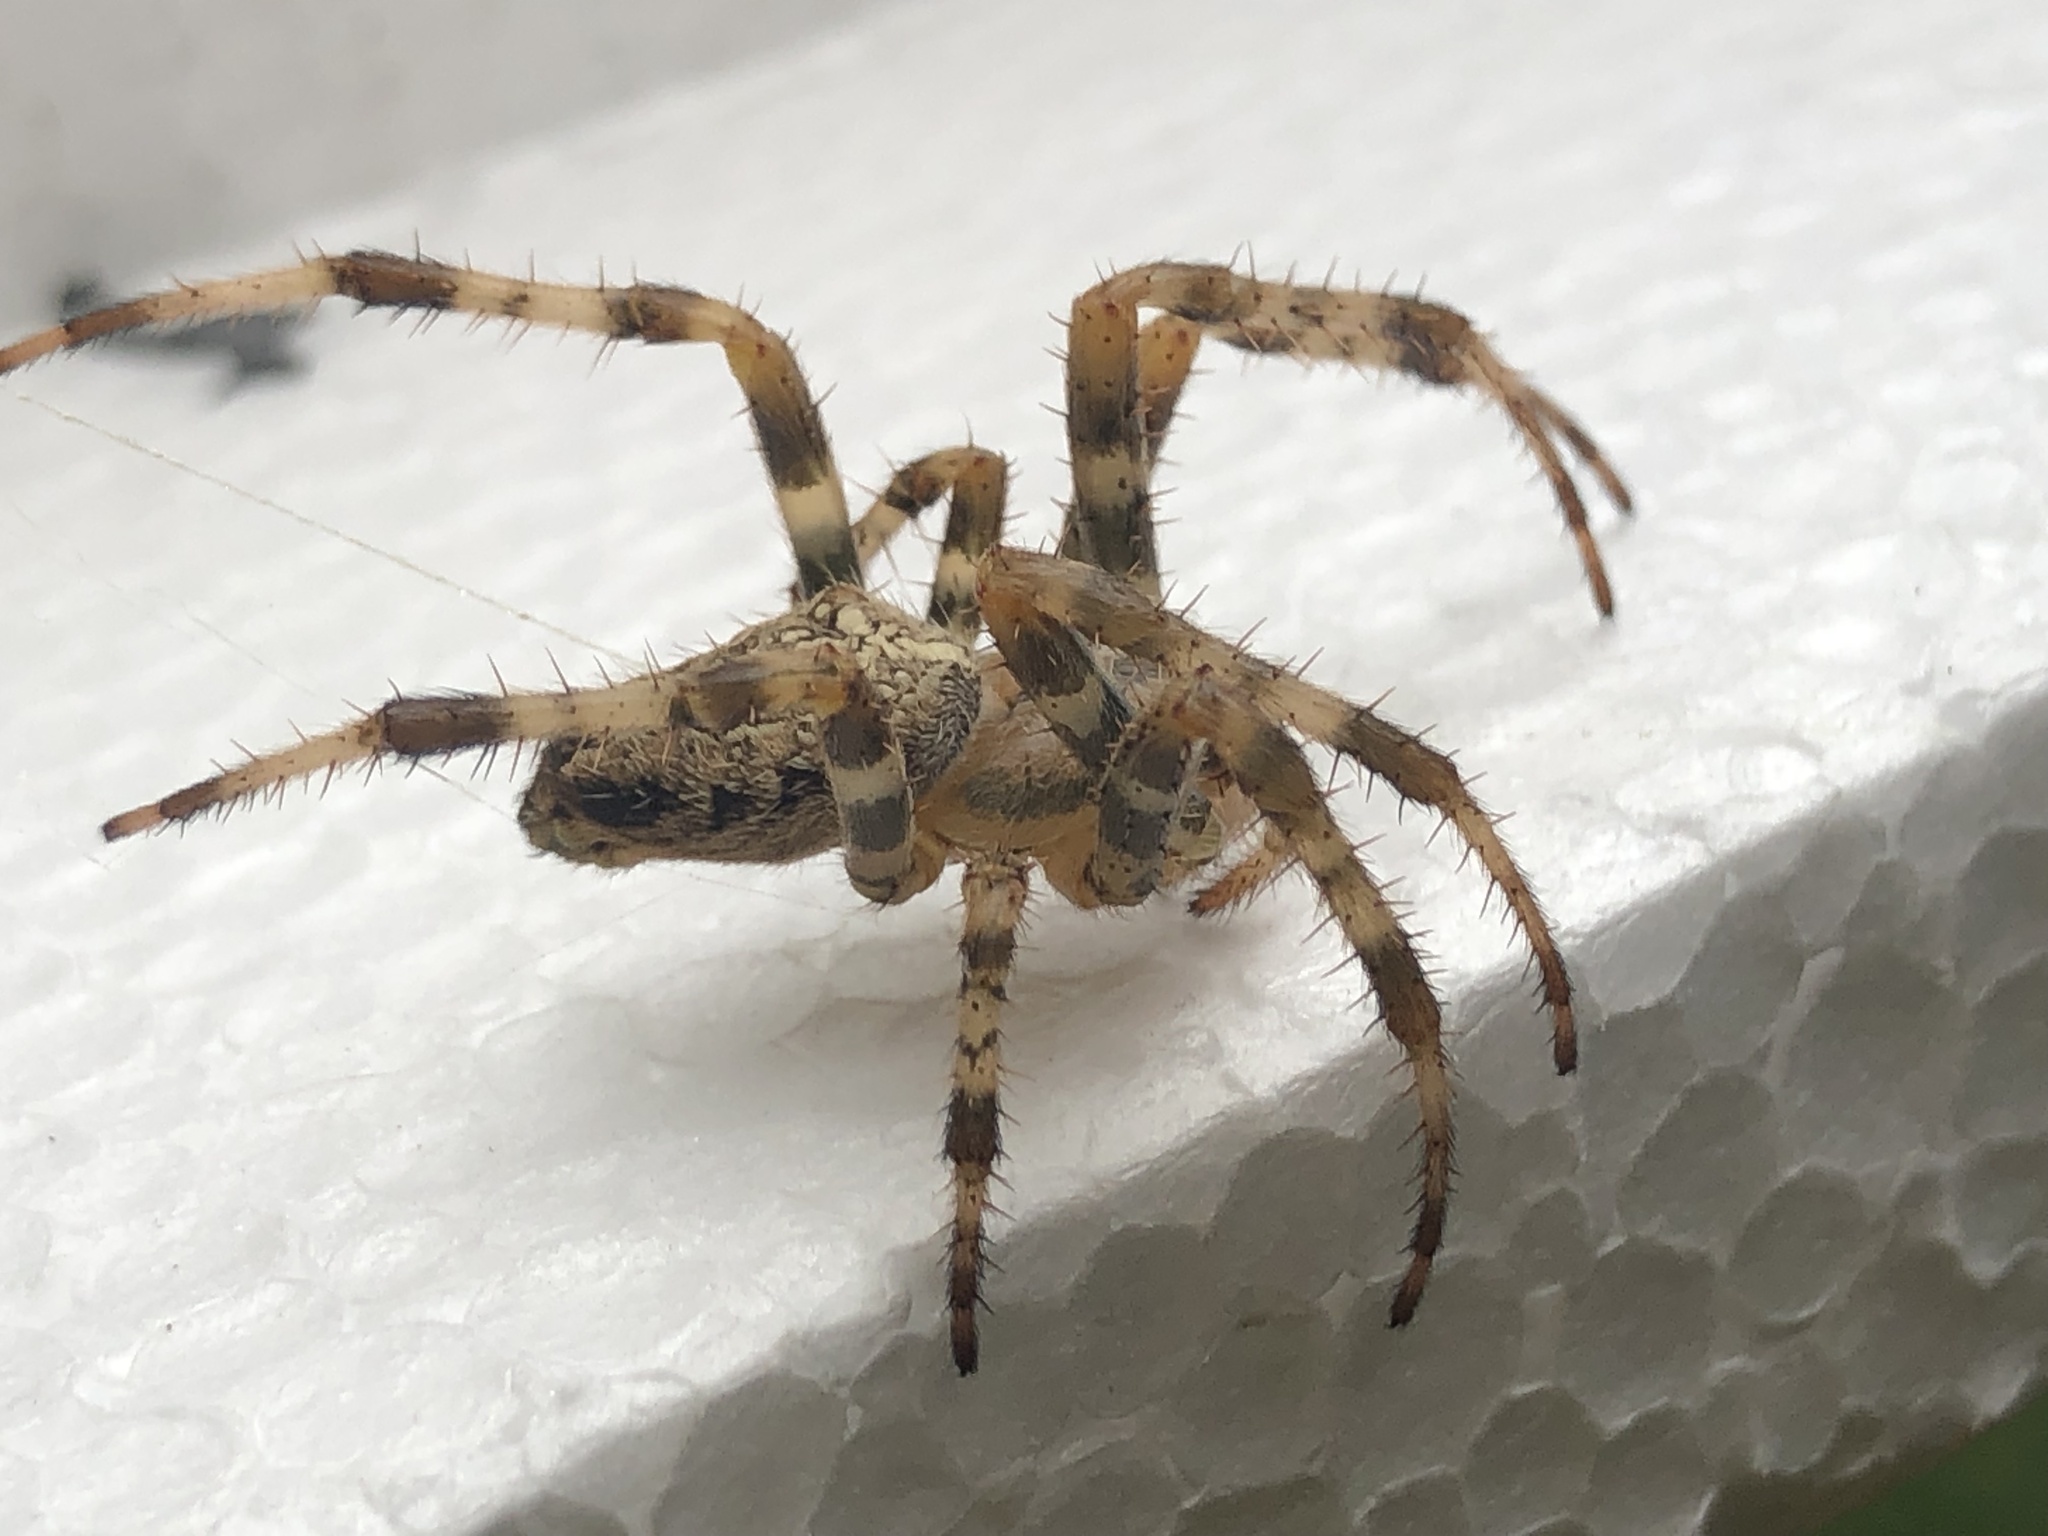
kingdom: Animalia
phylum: Arthropoda
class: Arachnida
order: Araneae
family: Araneidae
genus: Araneus
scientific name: Araneus diadematus
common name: Cross orbweaver
